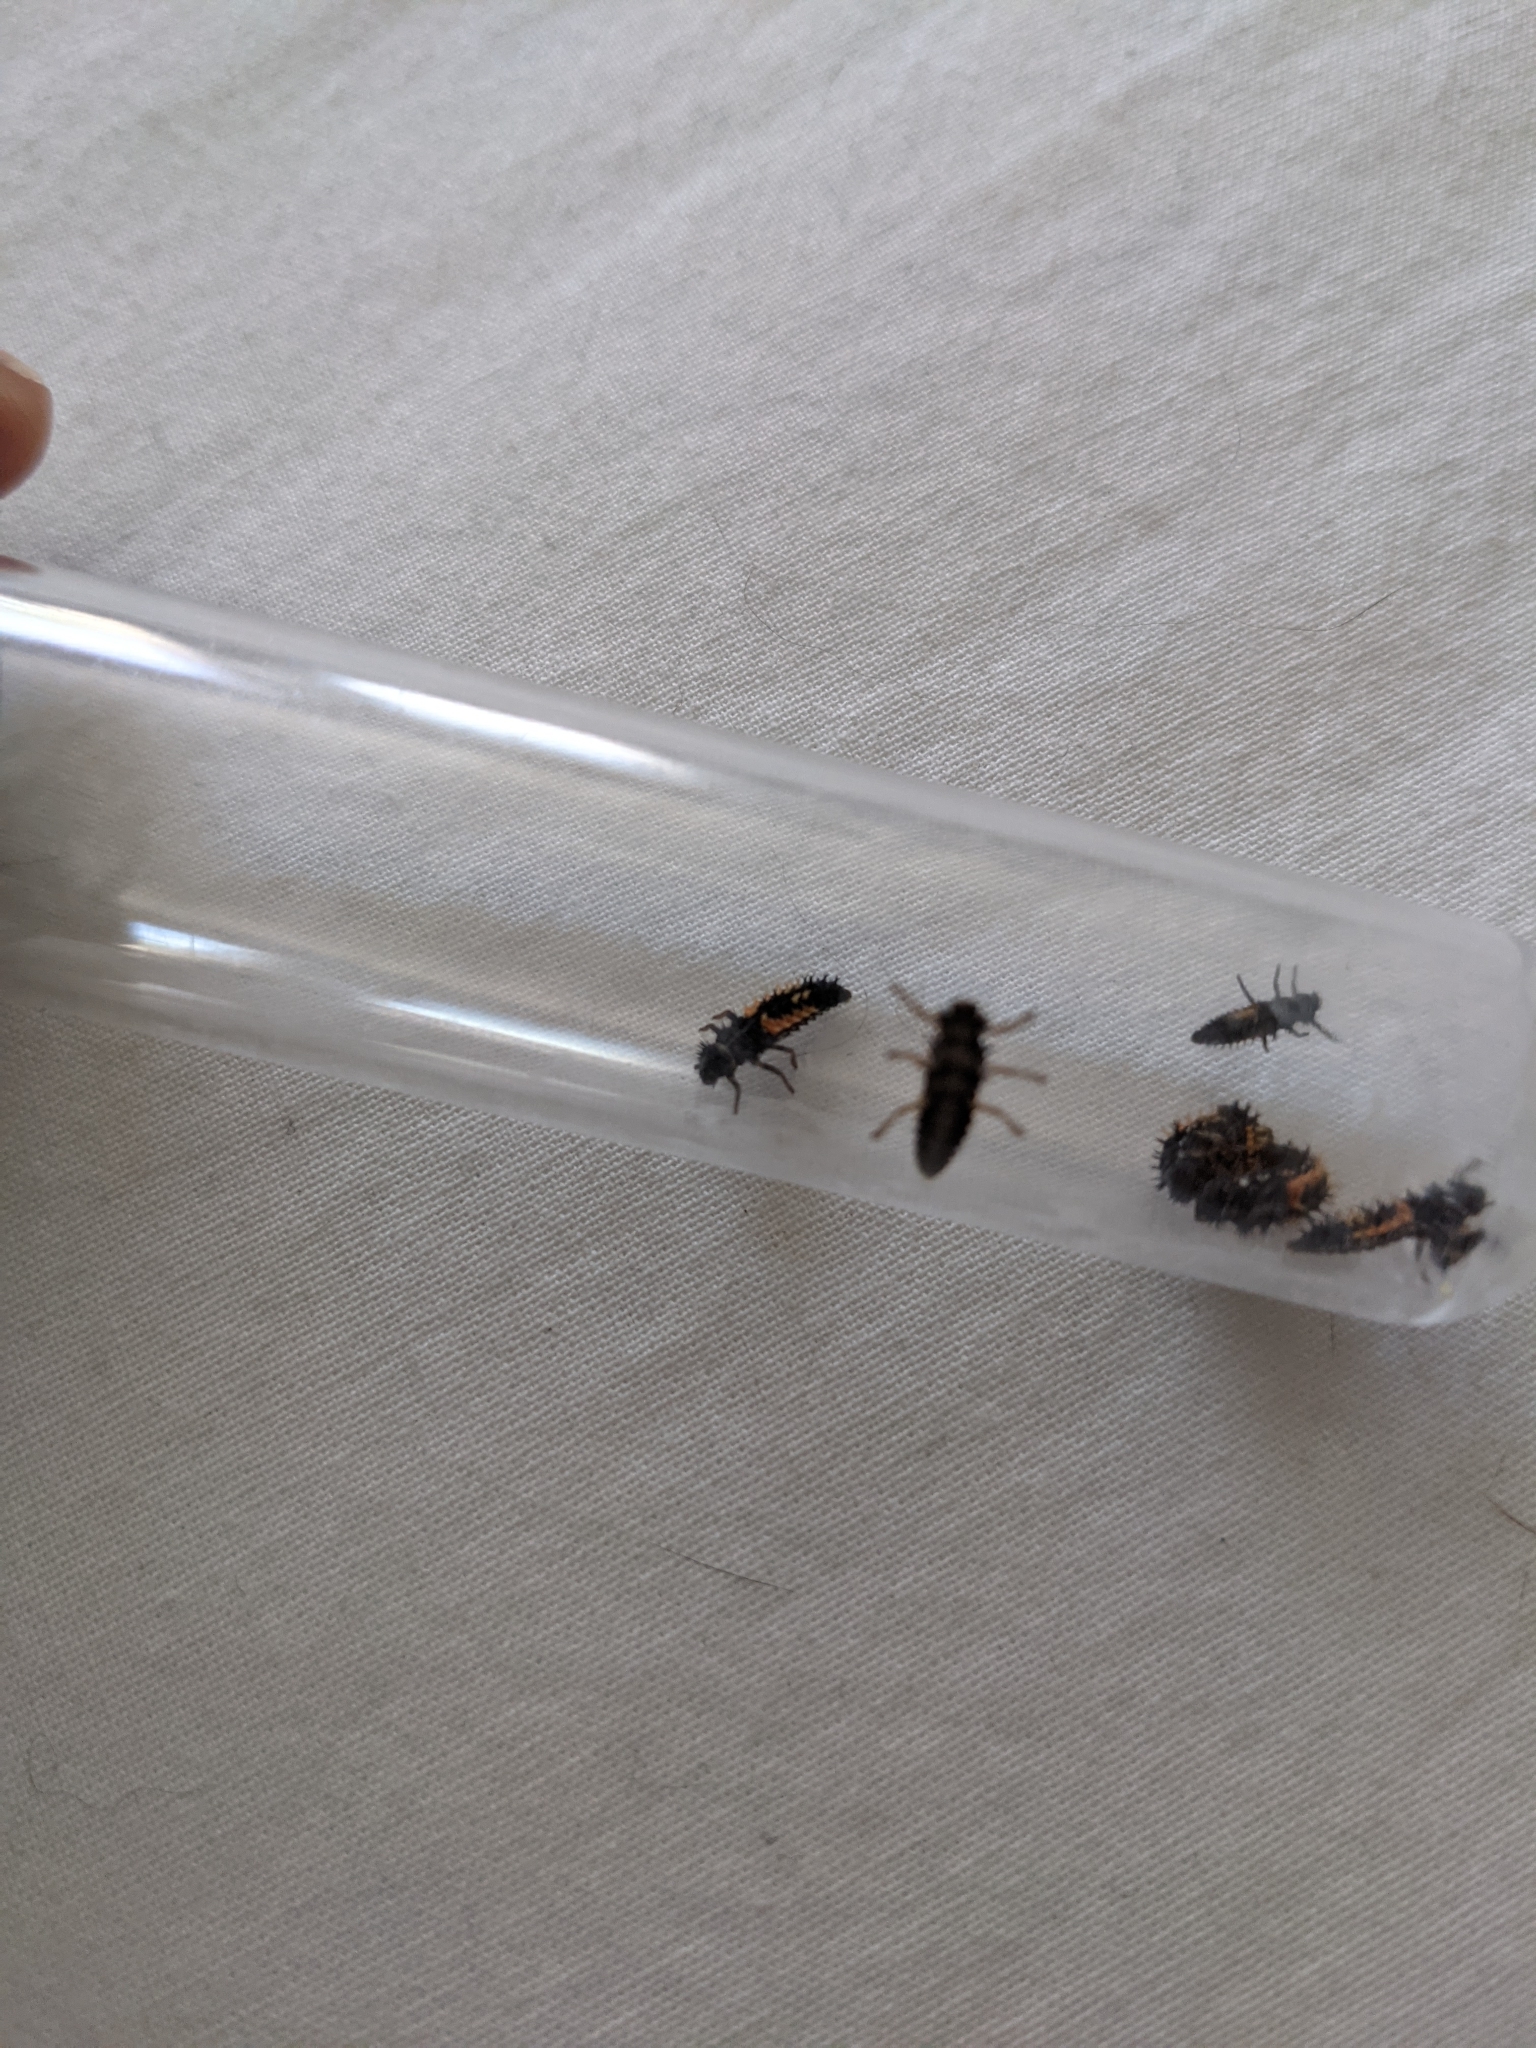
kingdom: Animalia
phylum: Arthropoda
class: Insecta
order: Coleoptera
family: Coccinellidae
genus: Harmonia
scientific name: Harmonia axyridis
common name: Harlequin ladybird
